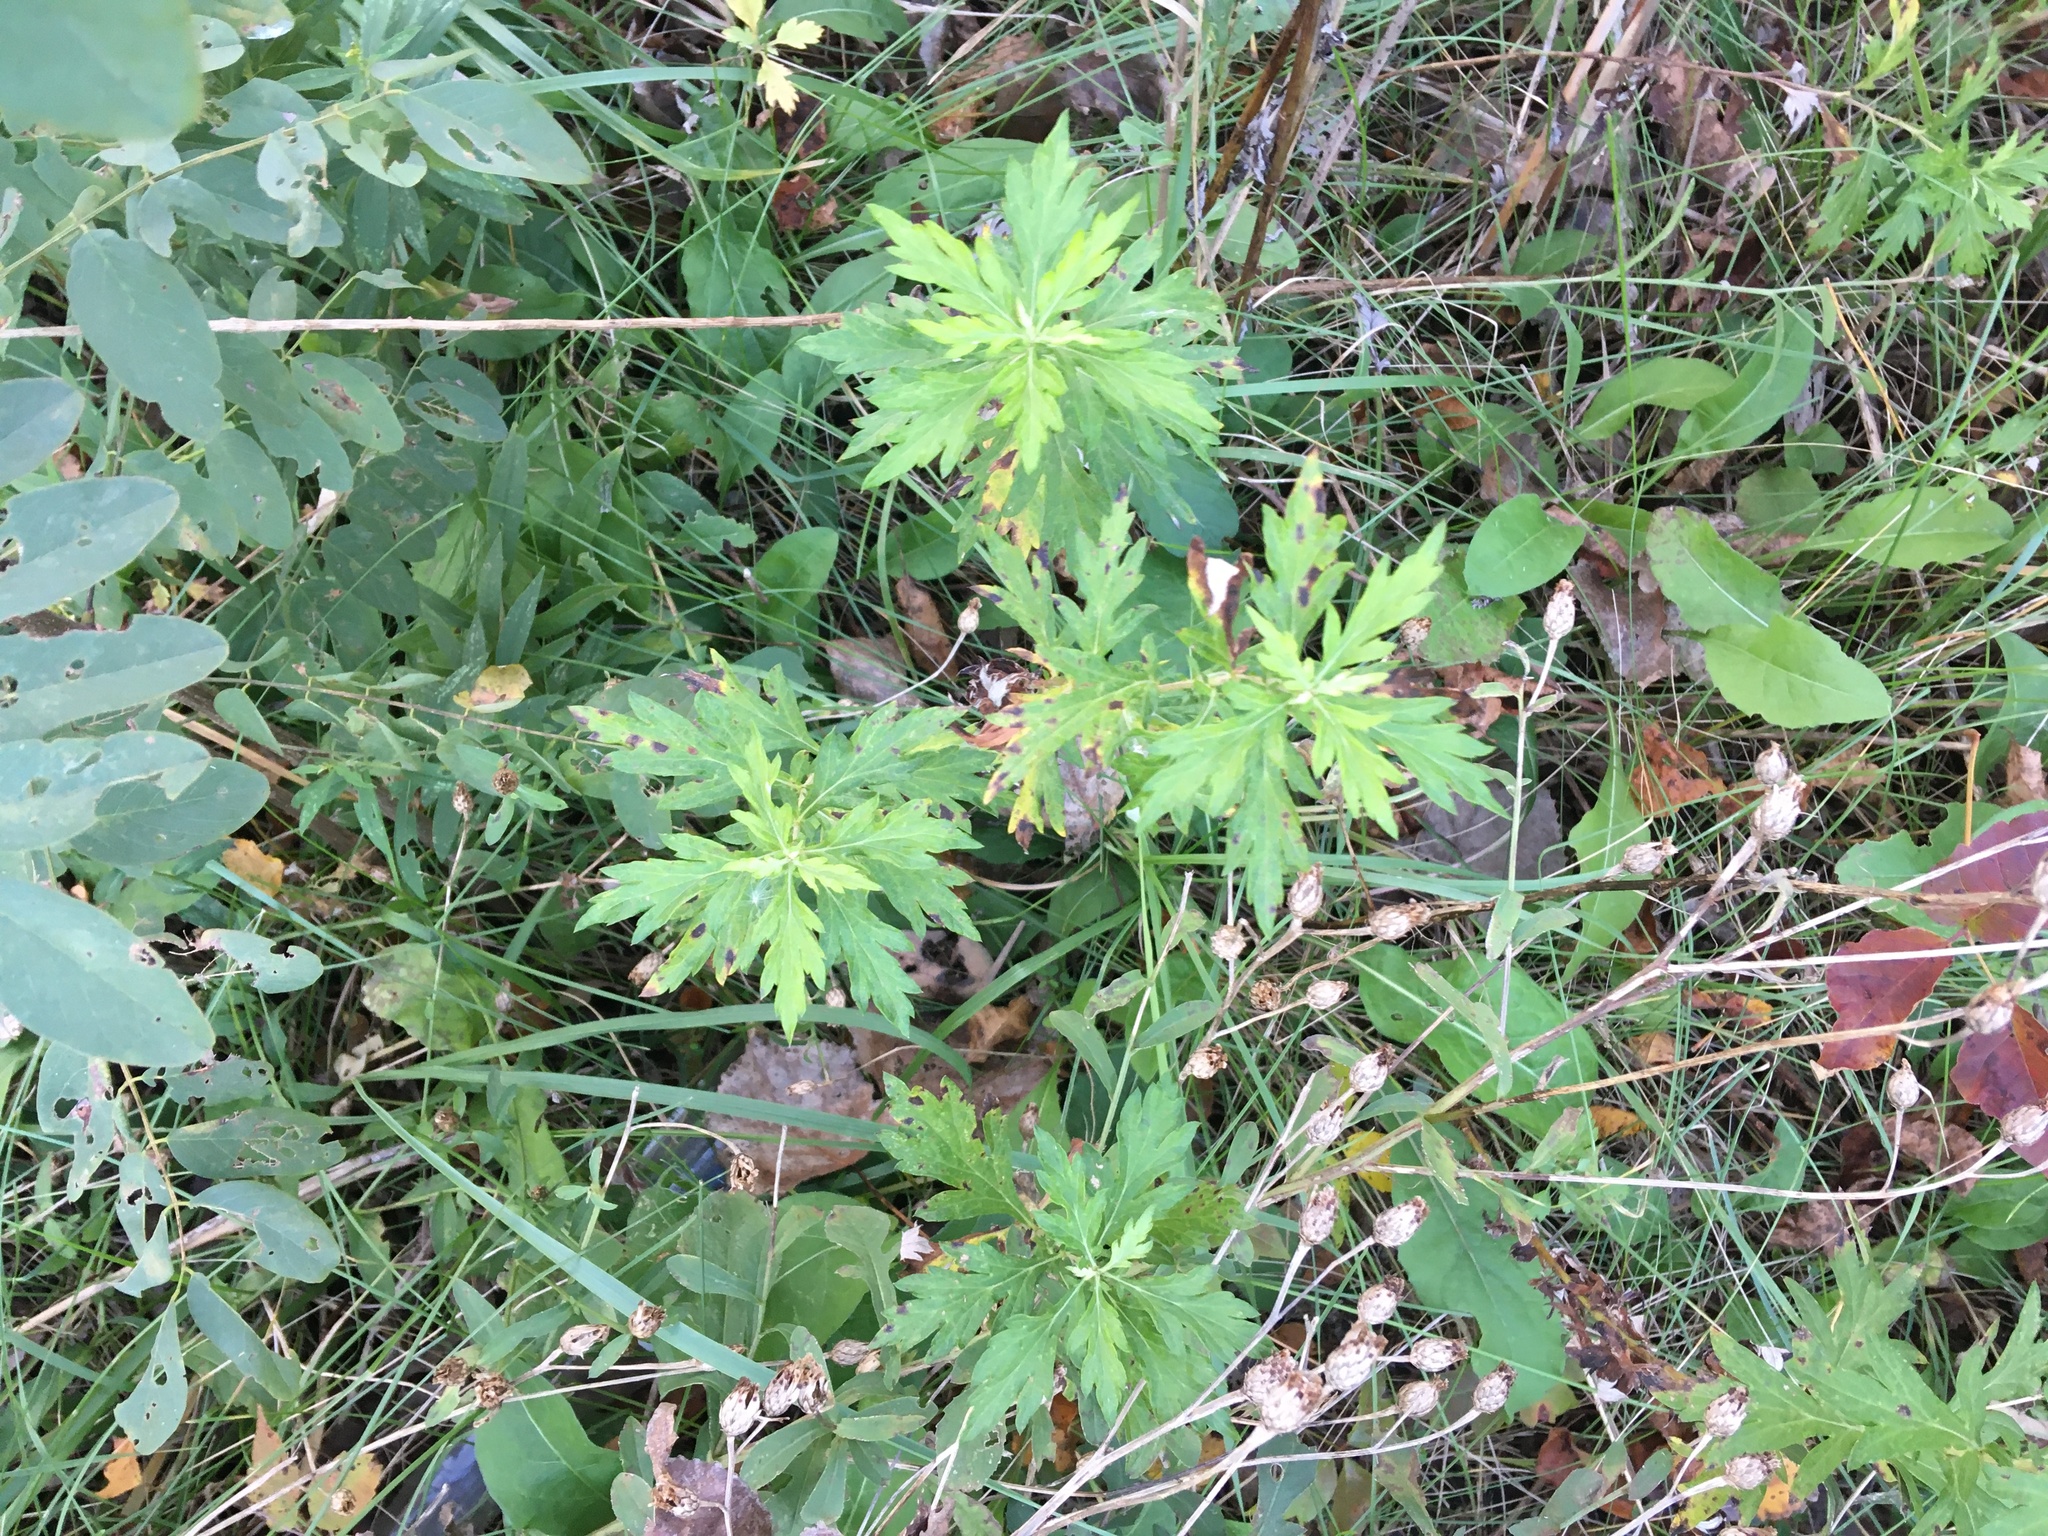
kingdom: Plantae
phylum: Tracheophyta
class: Magnoliopsida
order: Asterales
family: Asteraceae
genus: Artemisia
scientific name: Artemisia vulgaris
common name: Mugwort
